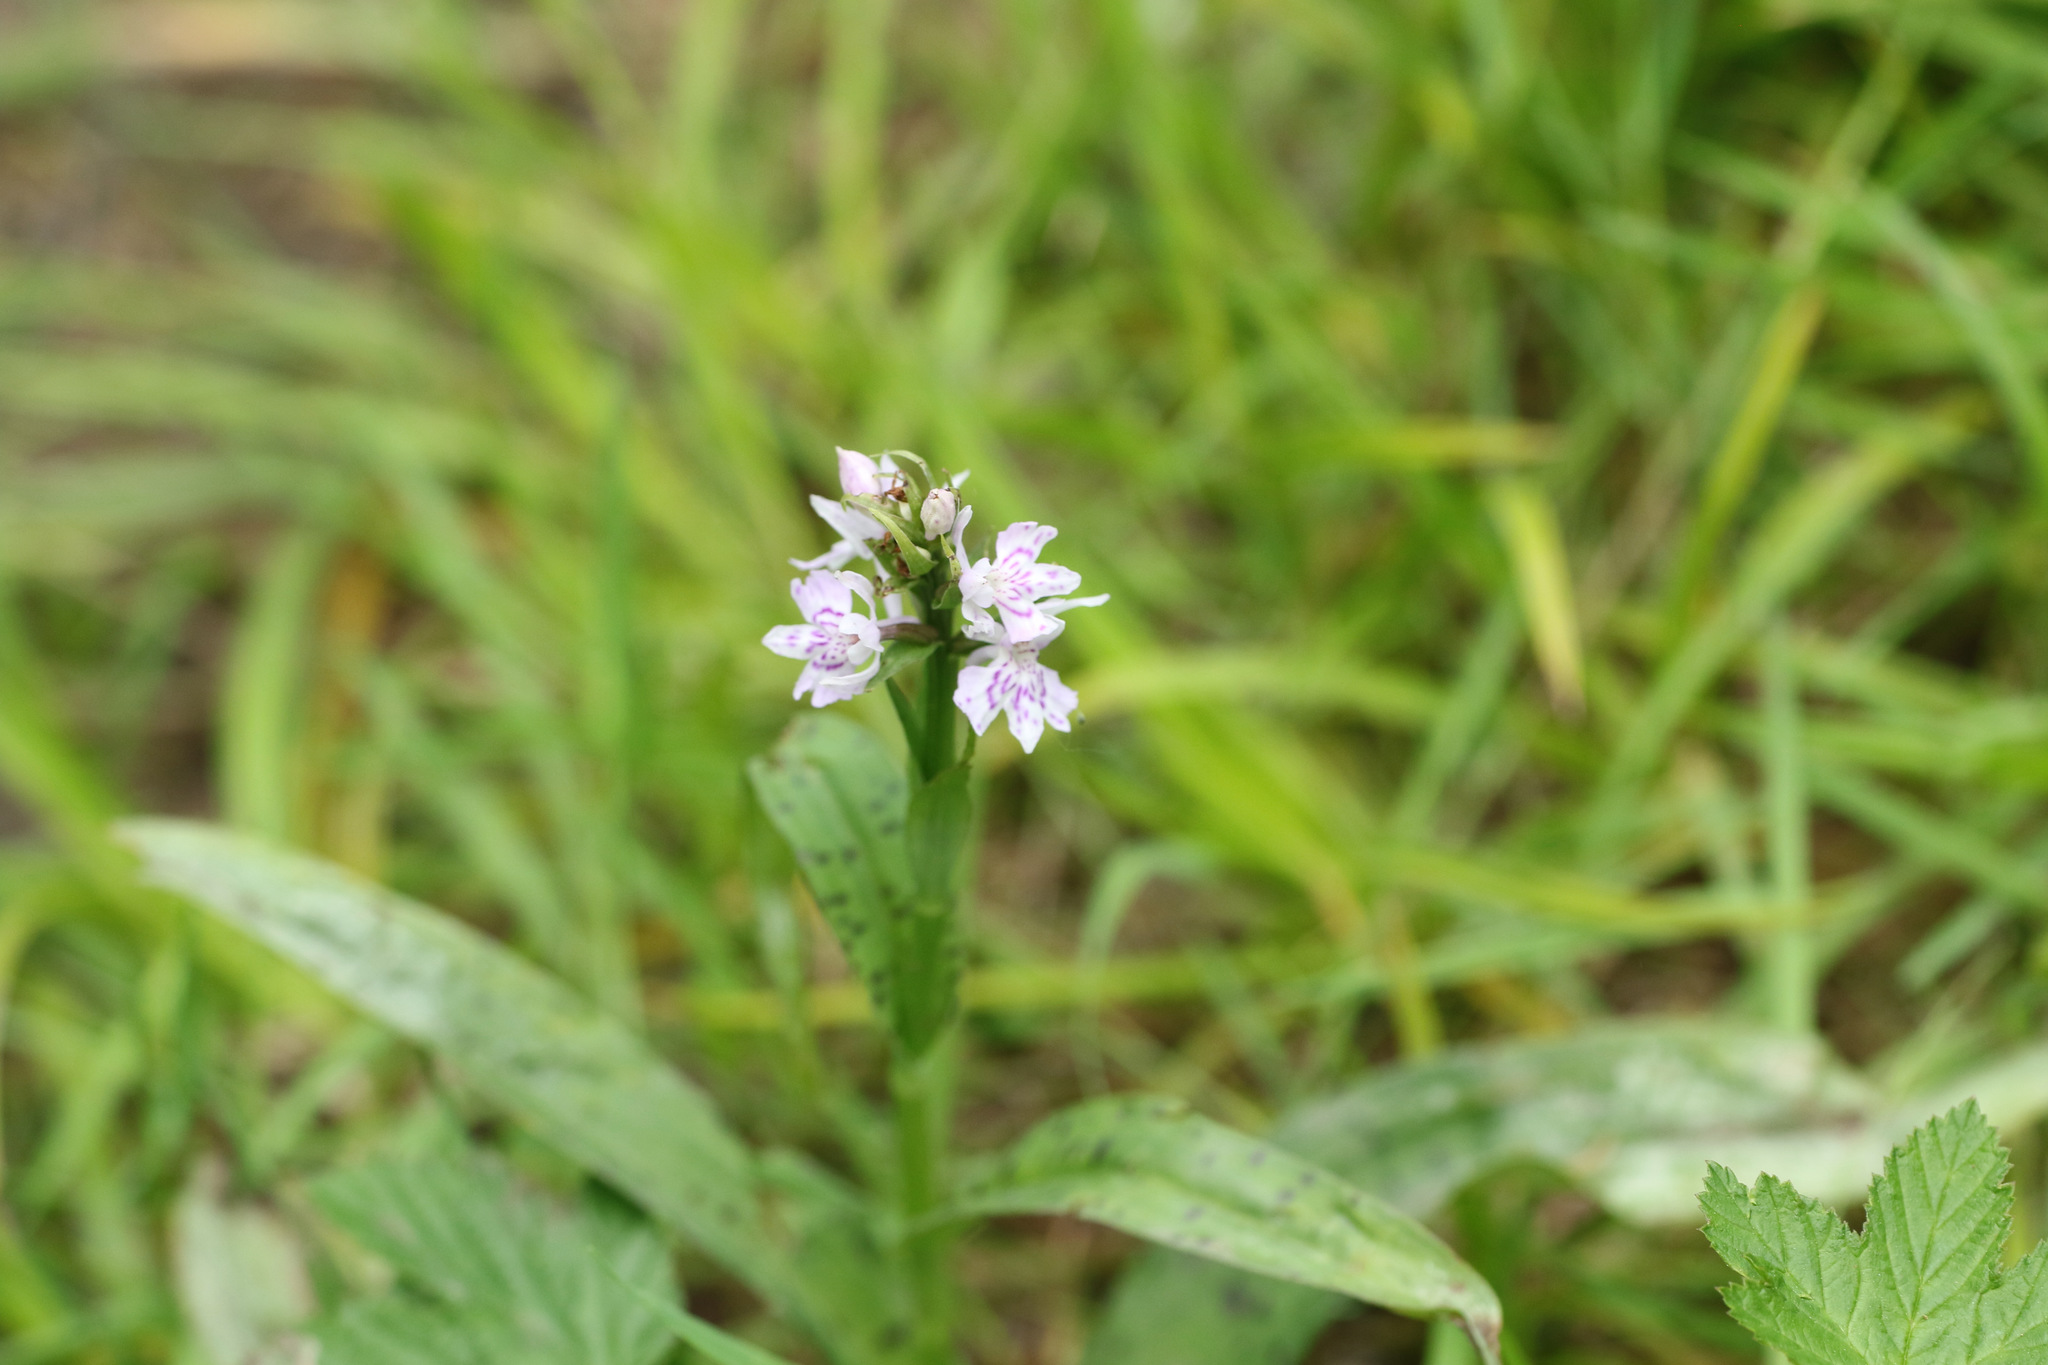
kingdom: Plantae
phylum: Tracheophyta
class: Liliopsida
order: Asparagales
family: Orchidaceae
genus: Dactylorhiza
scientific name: Dactylorhiza maculata
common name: Heath spotted-orchid
